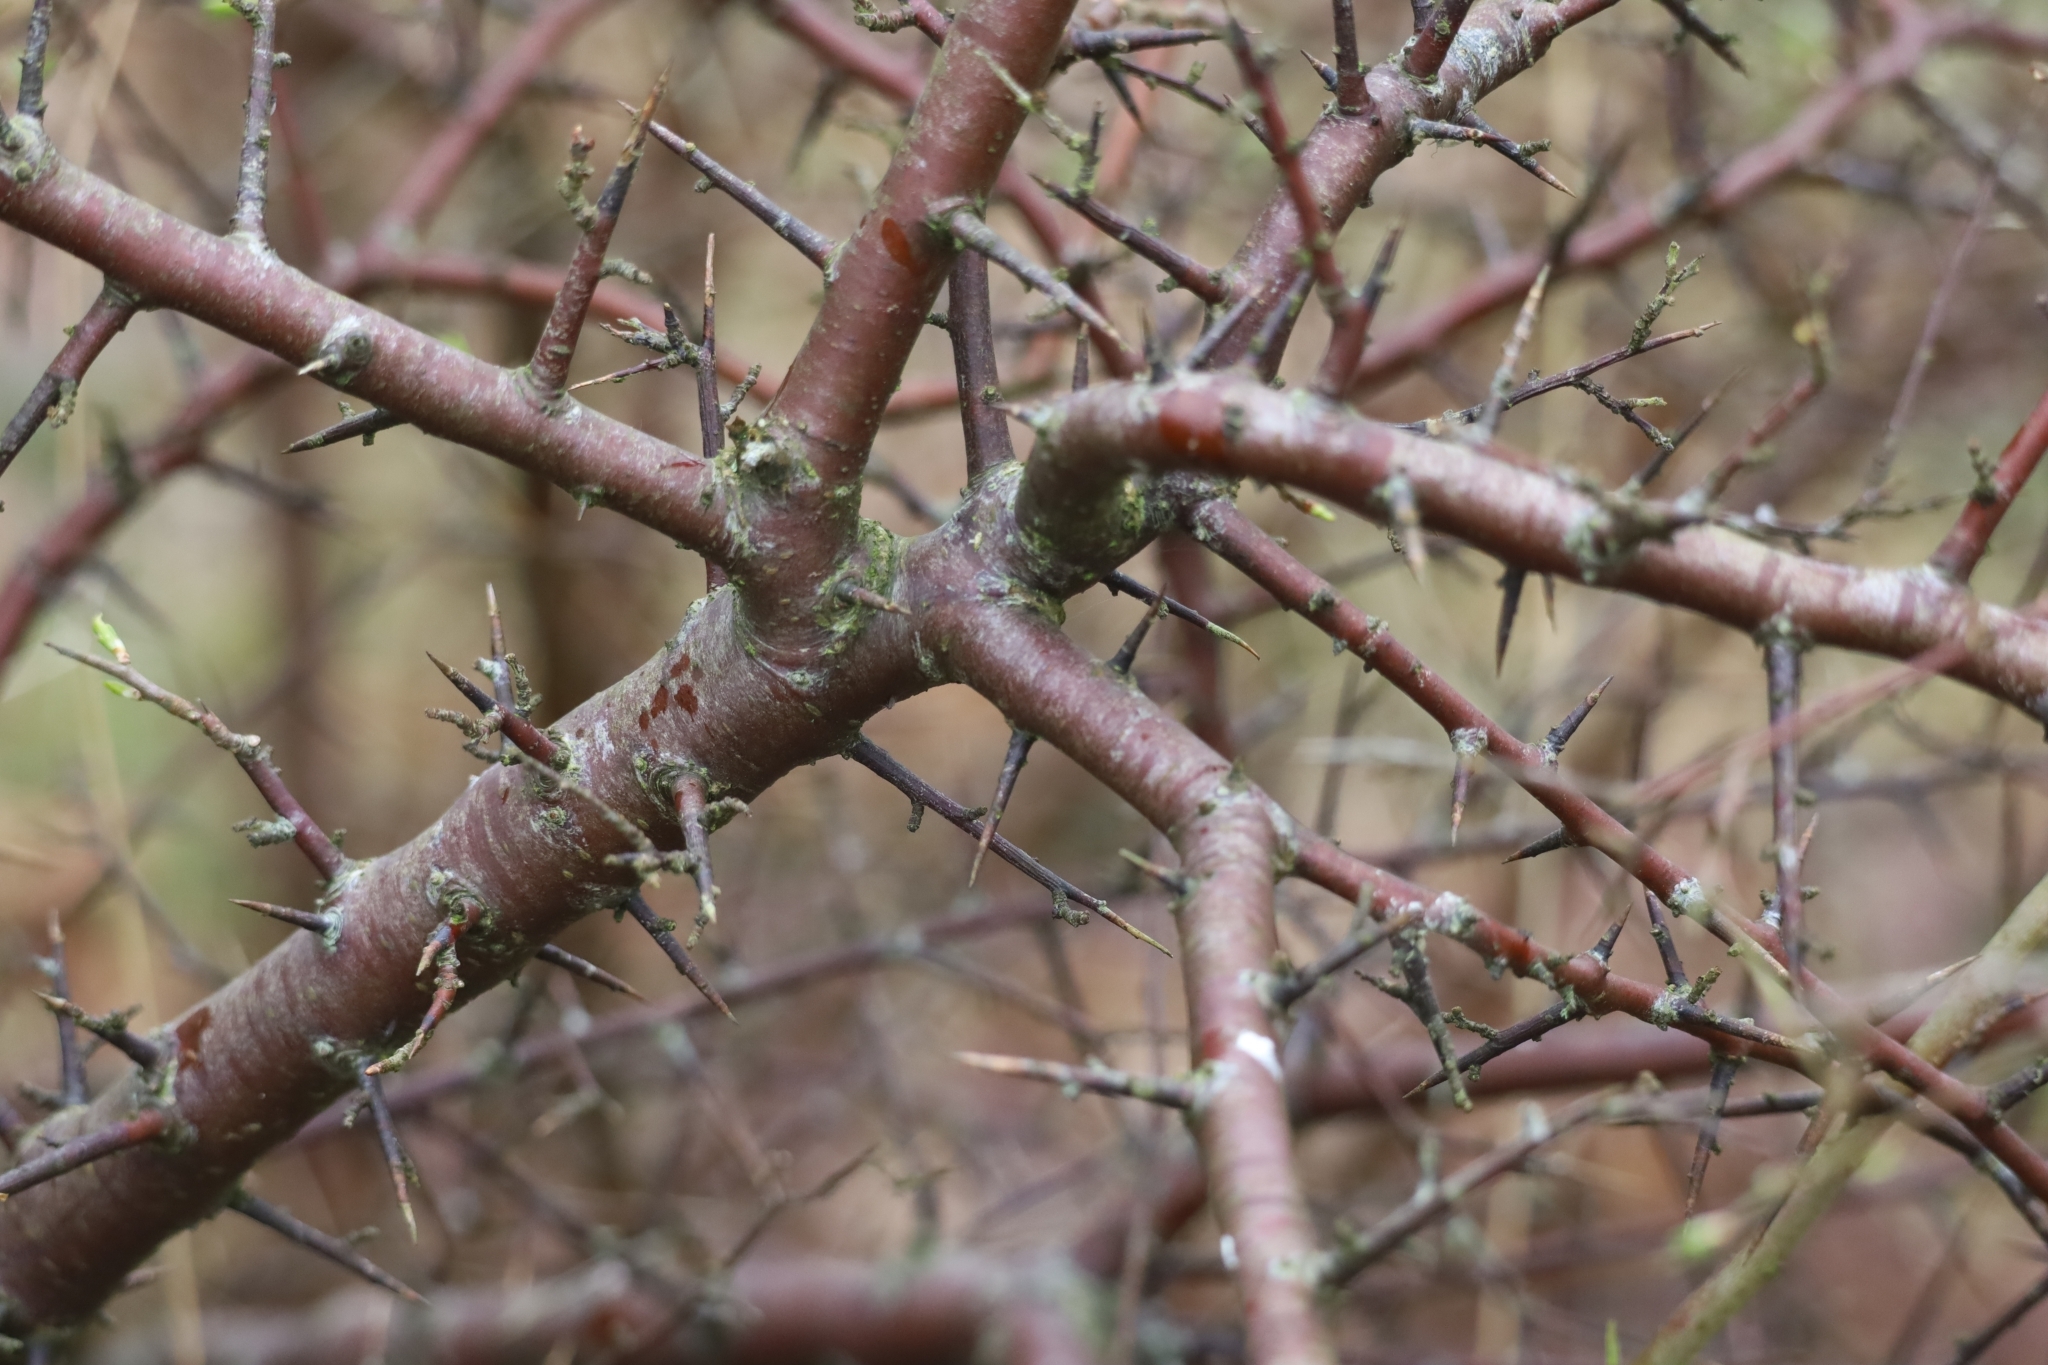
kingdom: Plantae
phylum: Tracheophyta
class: Magnoliopsida
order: Rosales
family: Rosaceae
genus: Prunus
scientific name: Prunus spinosa
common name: Blackthorn
